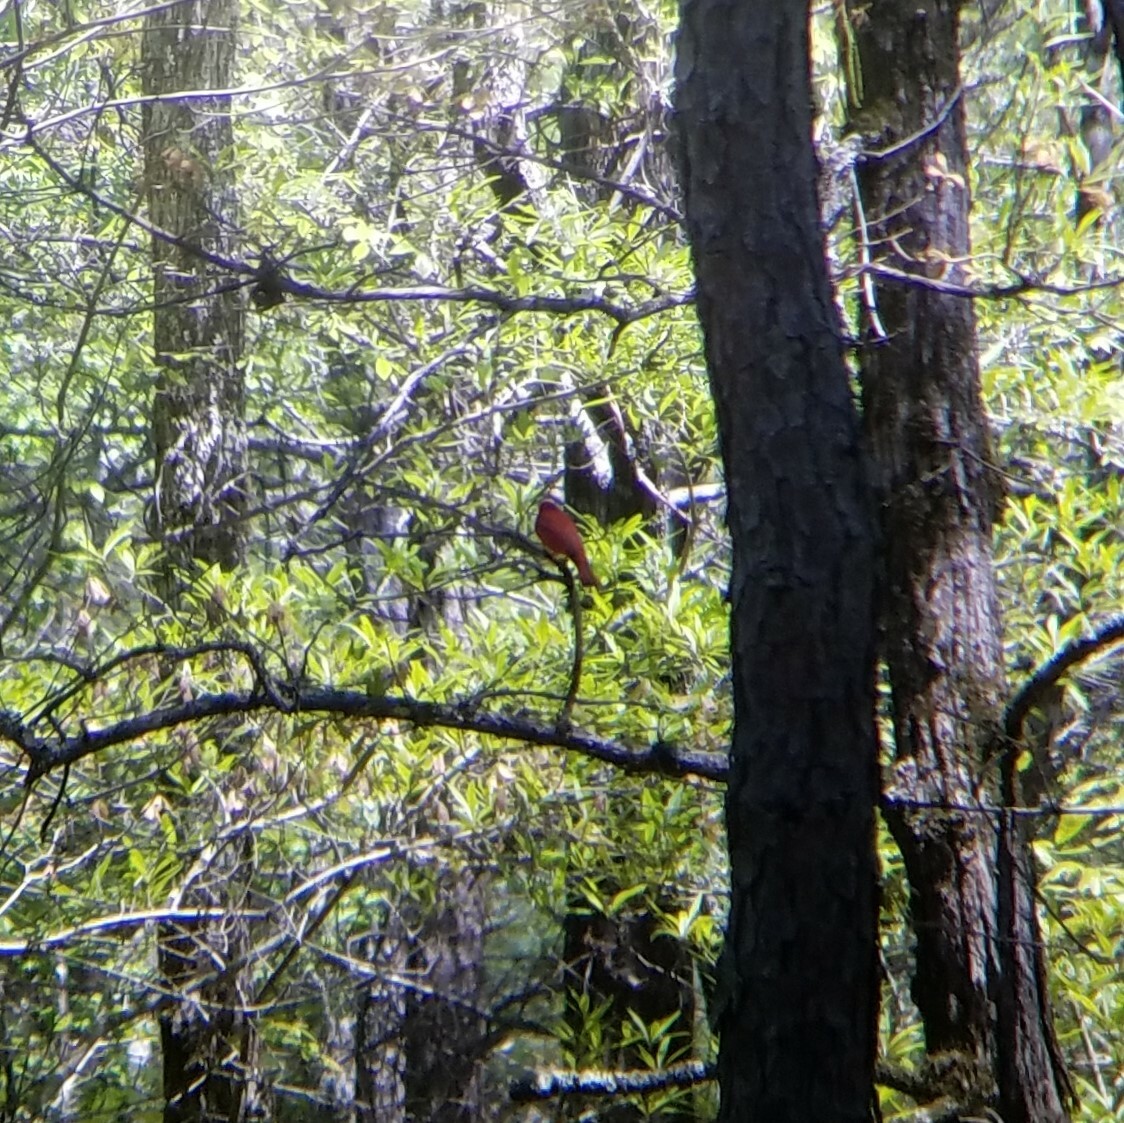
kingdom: Animalia
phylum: Chordata
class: Aves
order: Passeriformes
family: Cardinalidae
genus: Piranga
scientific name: Piranga rubra
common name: Summer tanager
